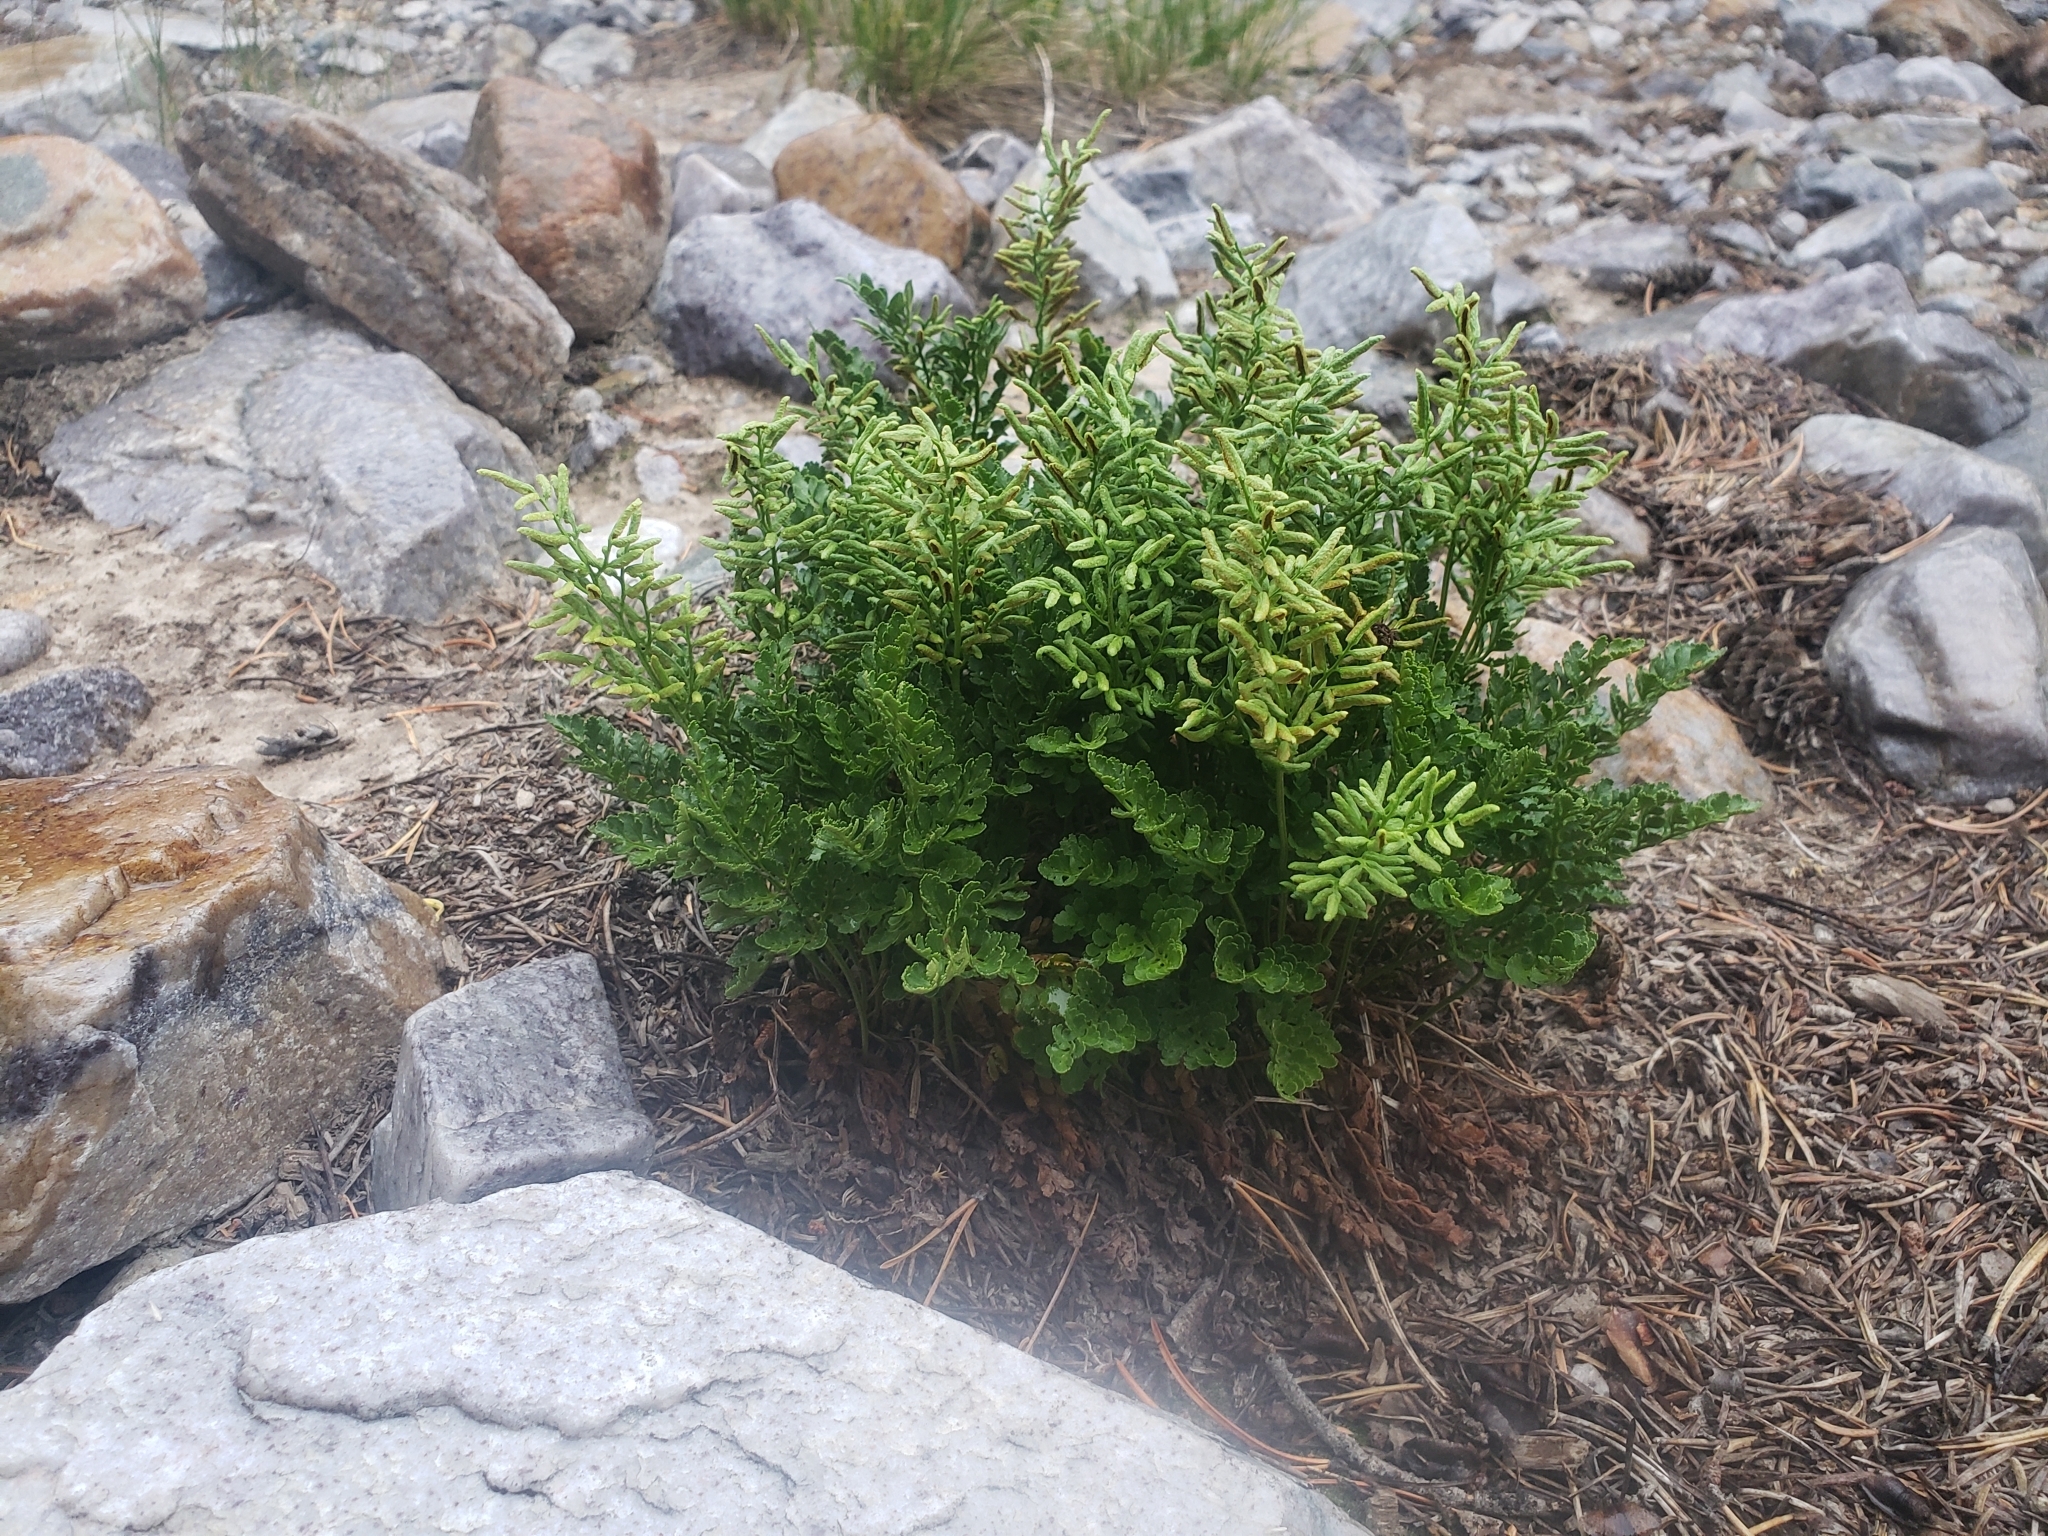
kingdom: Plantae
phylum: Tracheophyta
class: Polypodiopsida
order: Polypodiales
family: Pteridaceae
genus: Cryptogramma
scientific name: Cryptogramma acrostichoides
